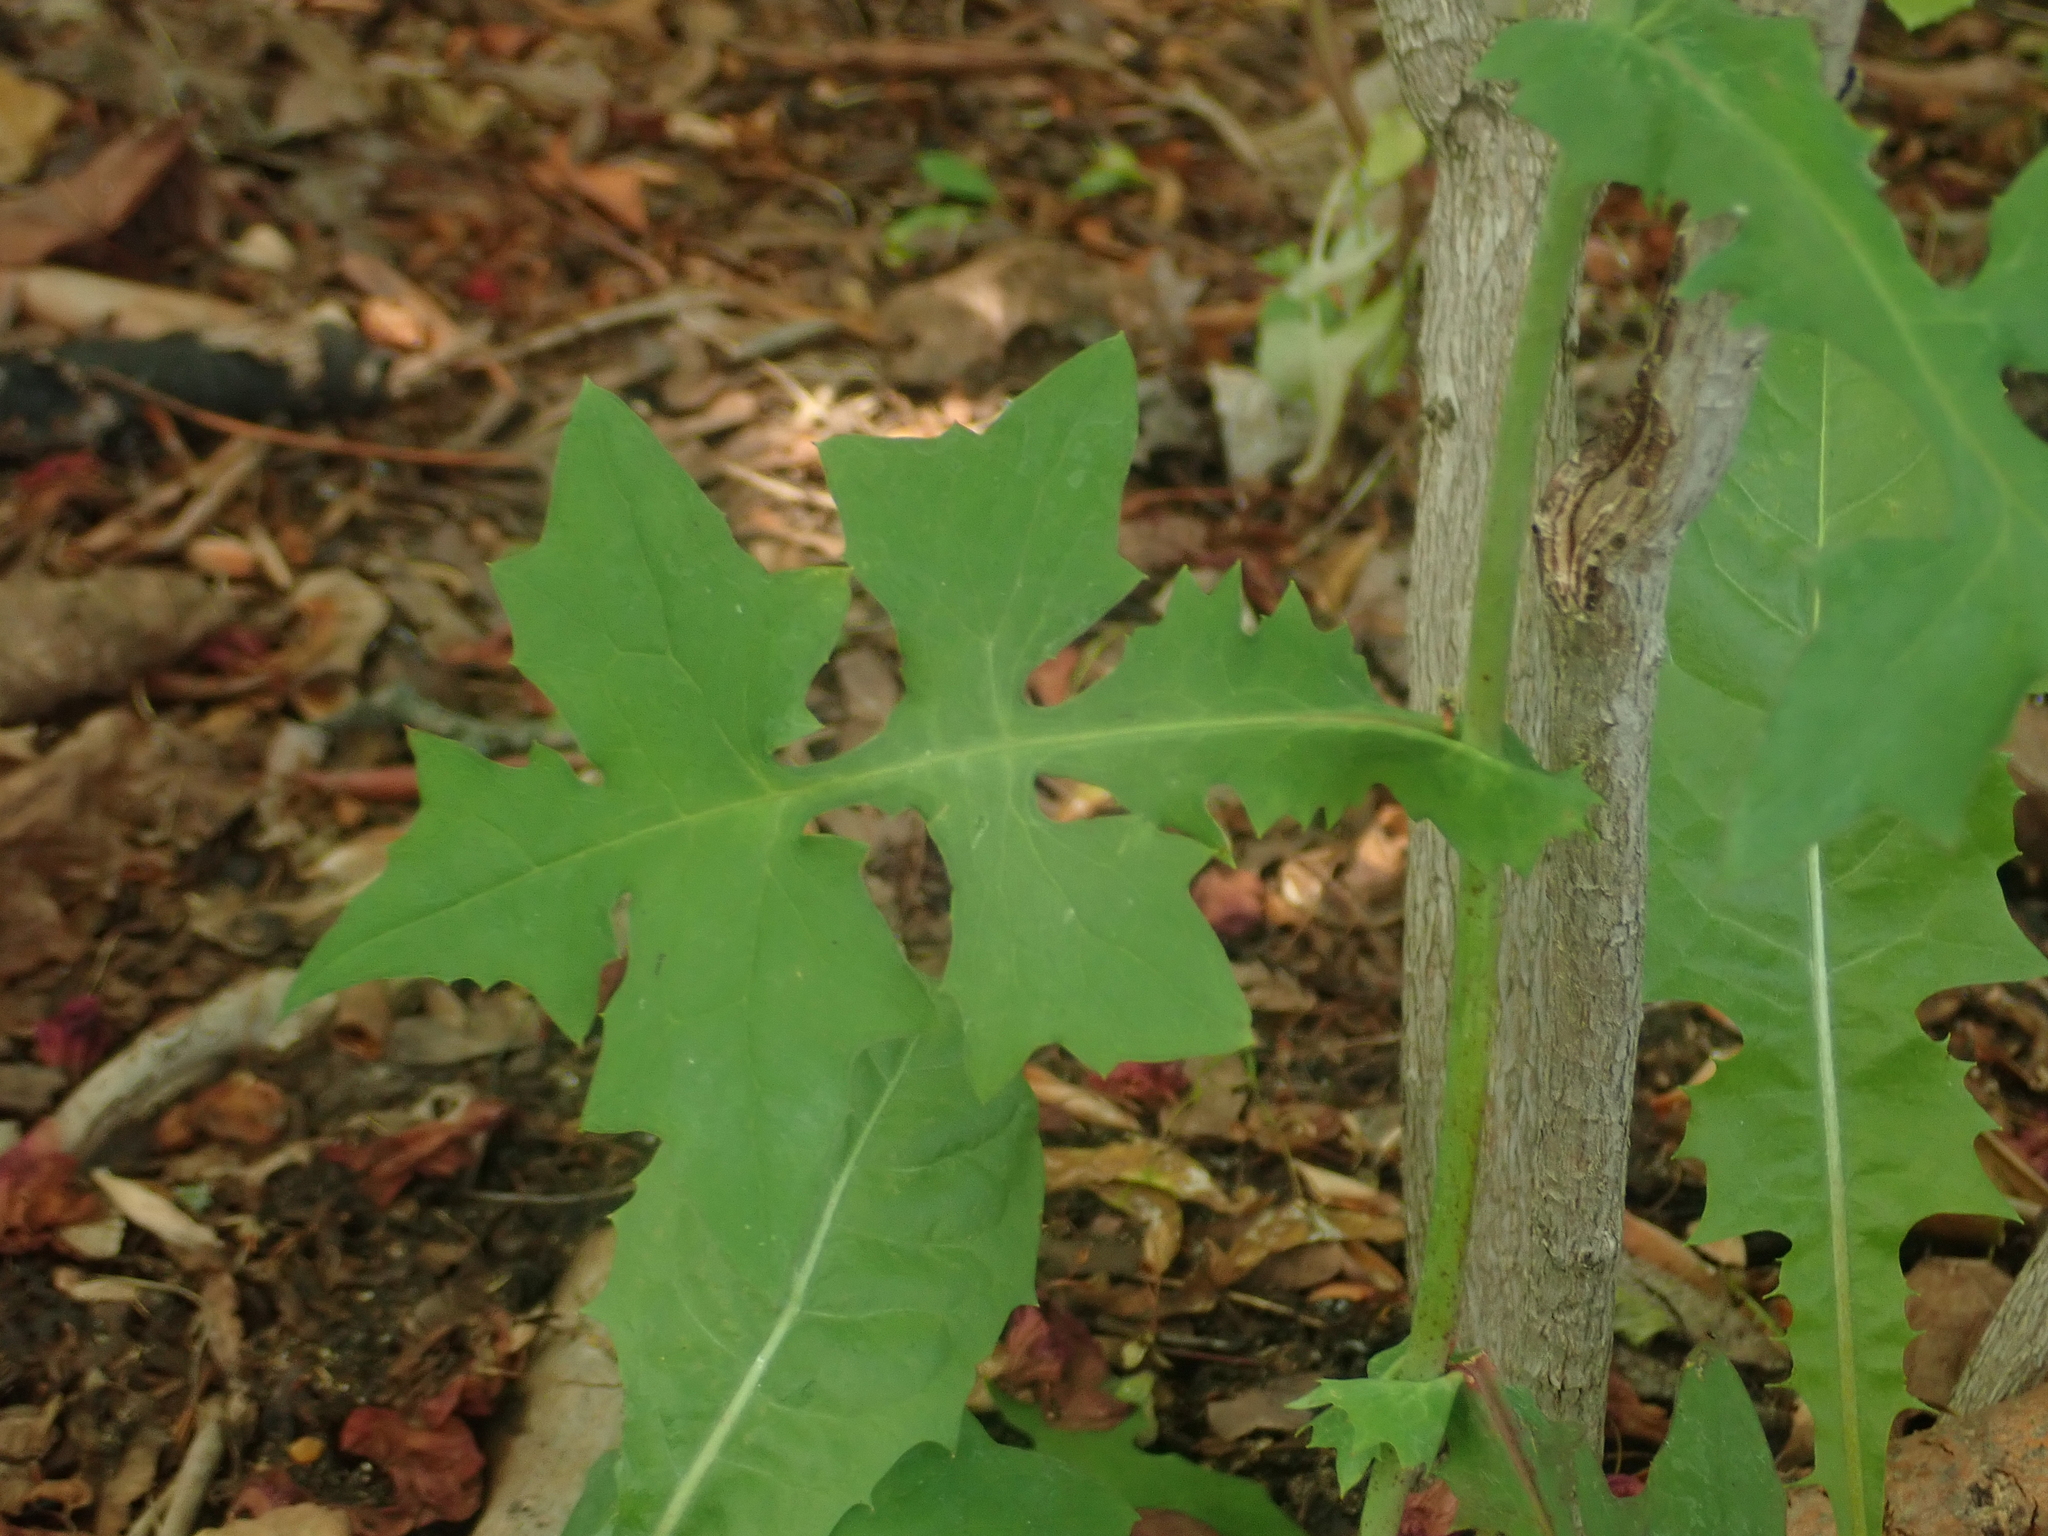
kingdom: Plantae
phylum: Tracheophyta
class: Magnoliopsida
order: Asterales
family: Asteraceae
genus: Mycelis
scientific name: Mycelis muralis
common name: Wall lettuce
